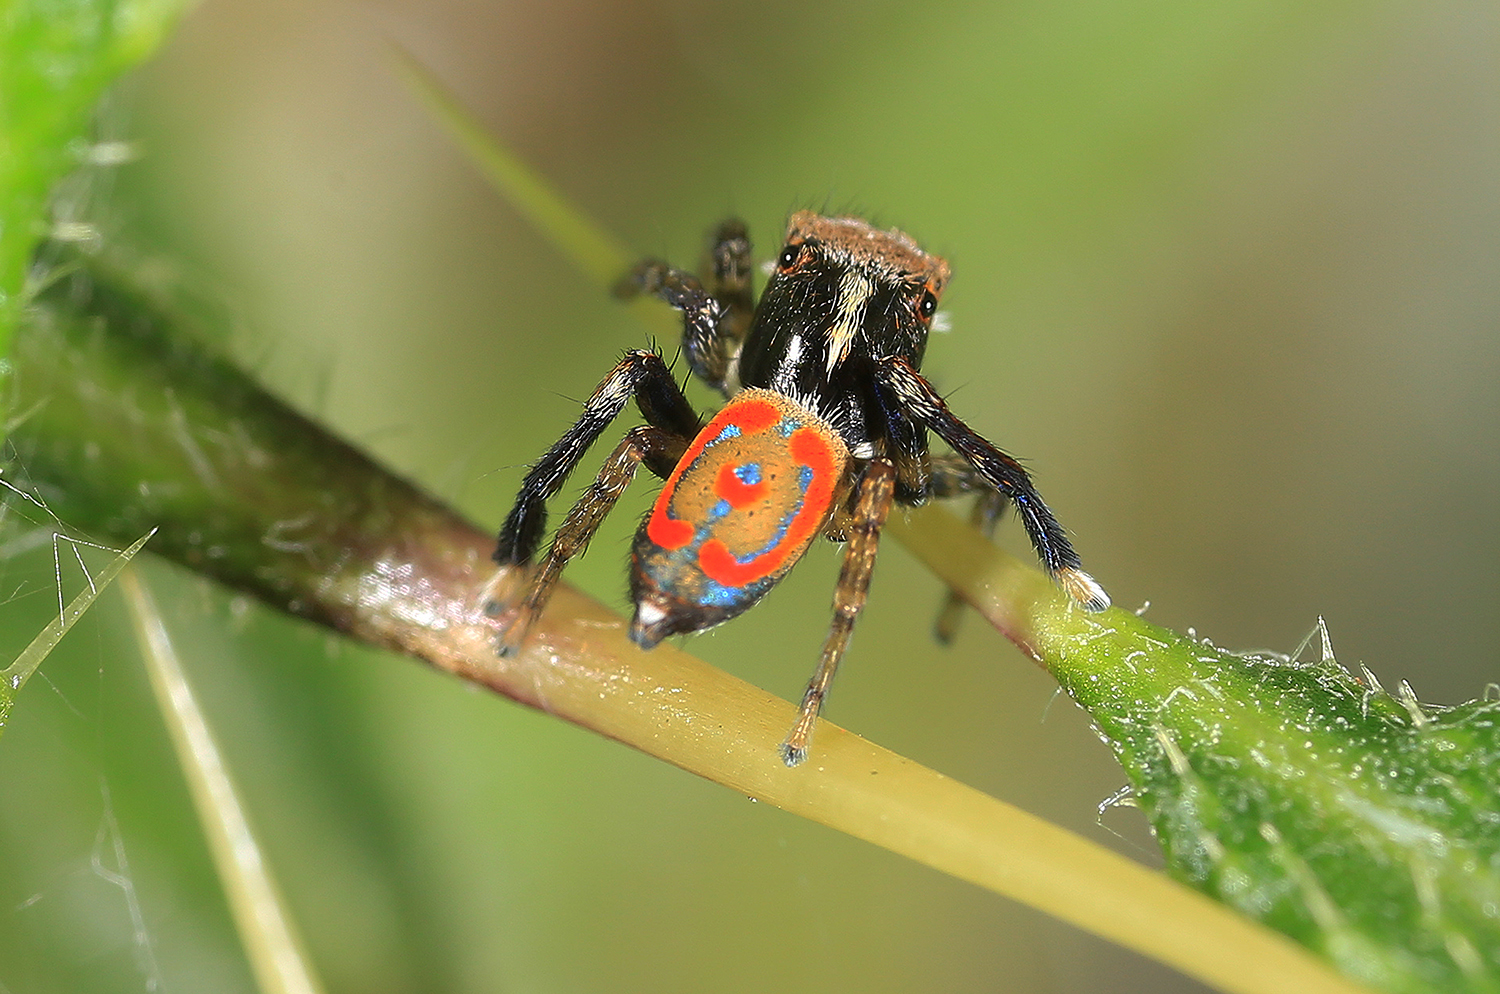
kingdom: Animalia
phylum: Arthropoda
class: Arachnida
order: Araneae
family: Salticidae
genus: Maratus
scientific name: Maratus pavonis
